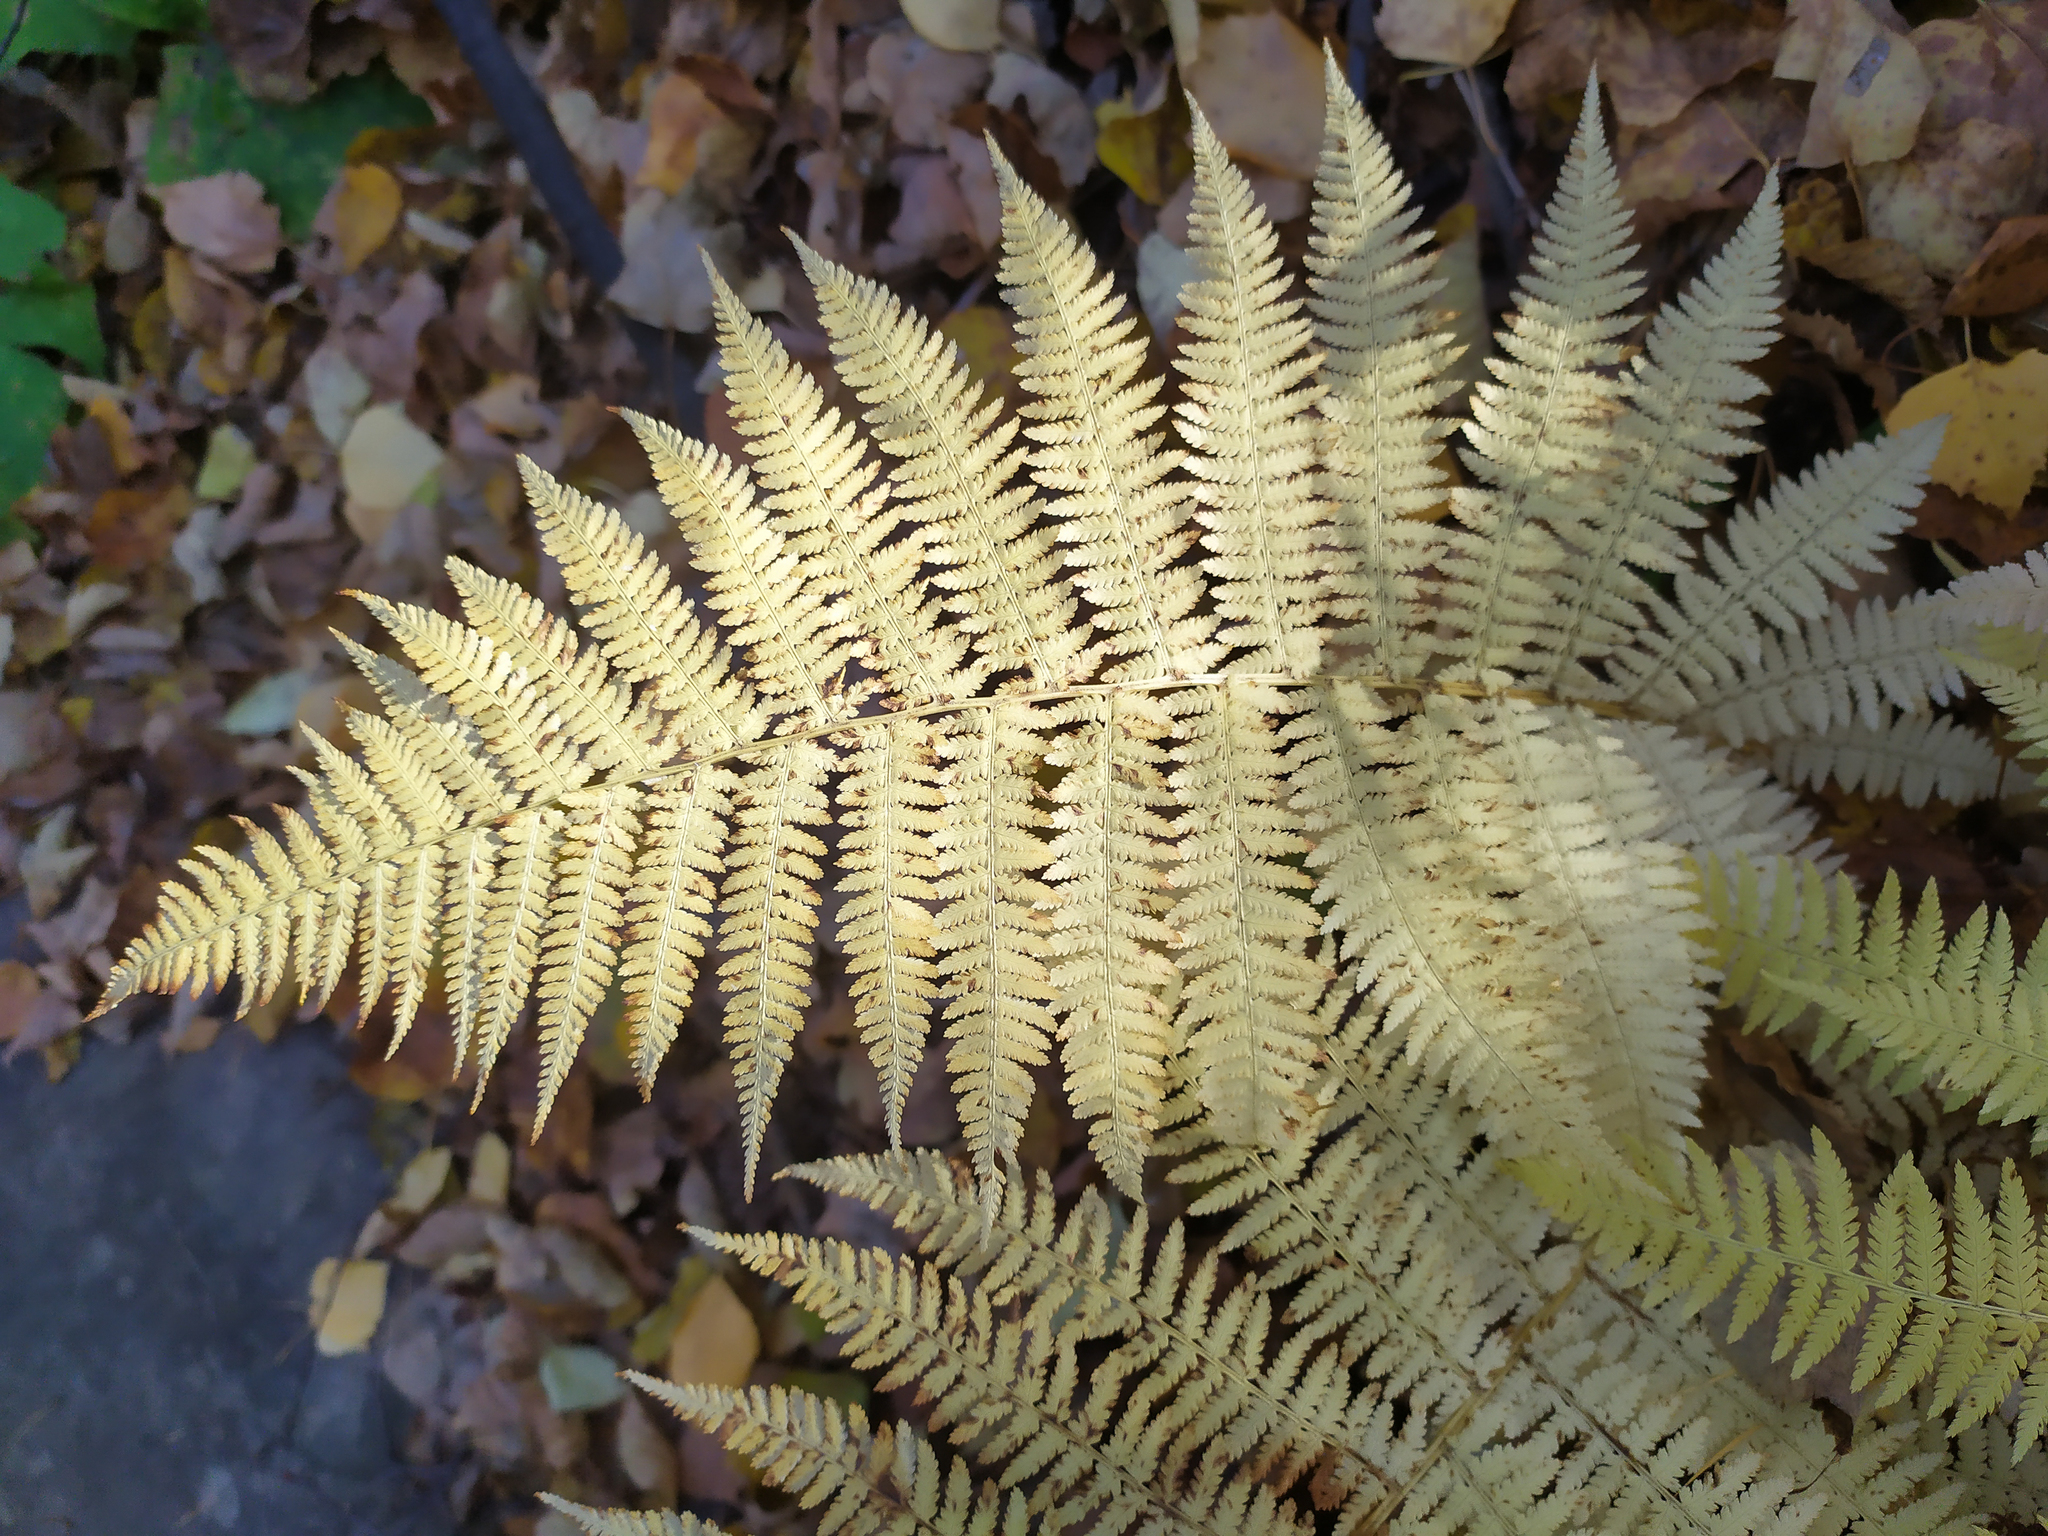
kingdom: Plantae
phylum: Tracheophyta
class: Polypodiopsida
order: Polypodiales
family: Athyriaceae
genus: Athyrium
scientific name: Athyrium filix-femina
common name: Lady fern
